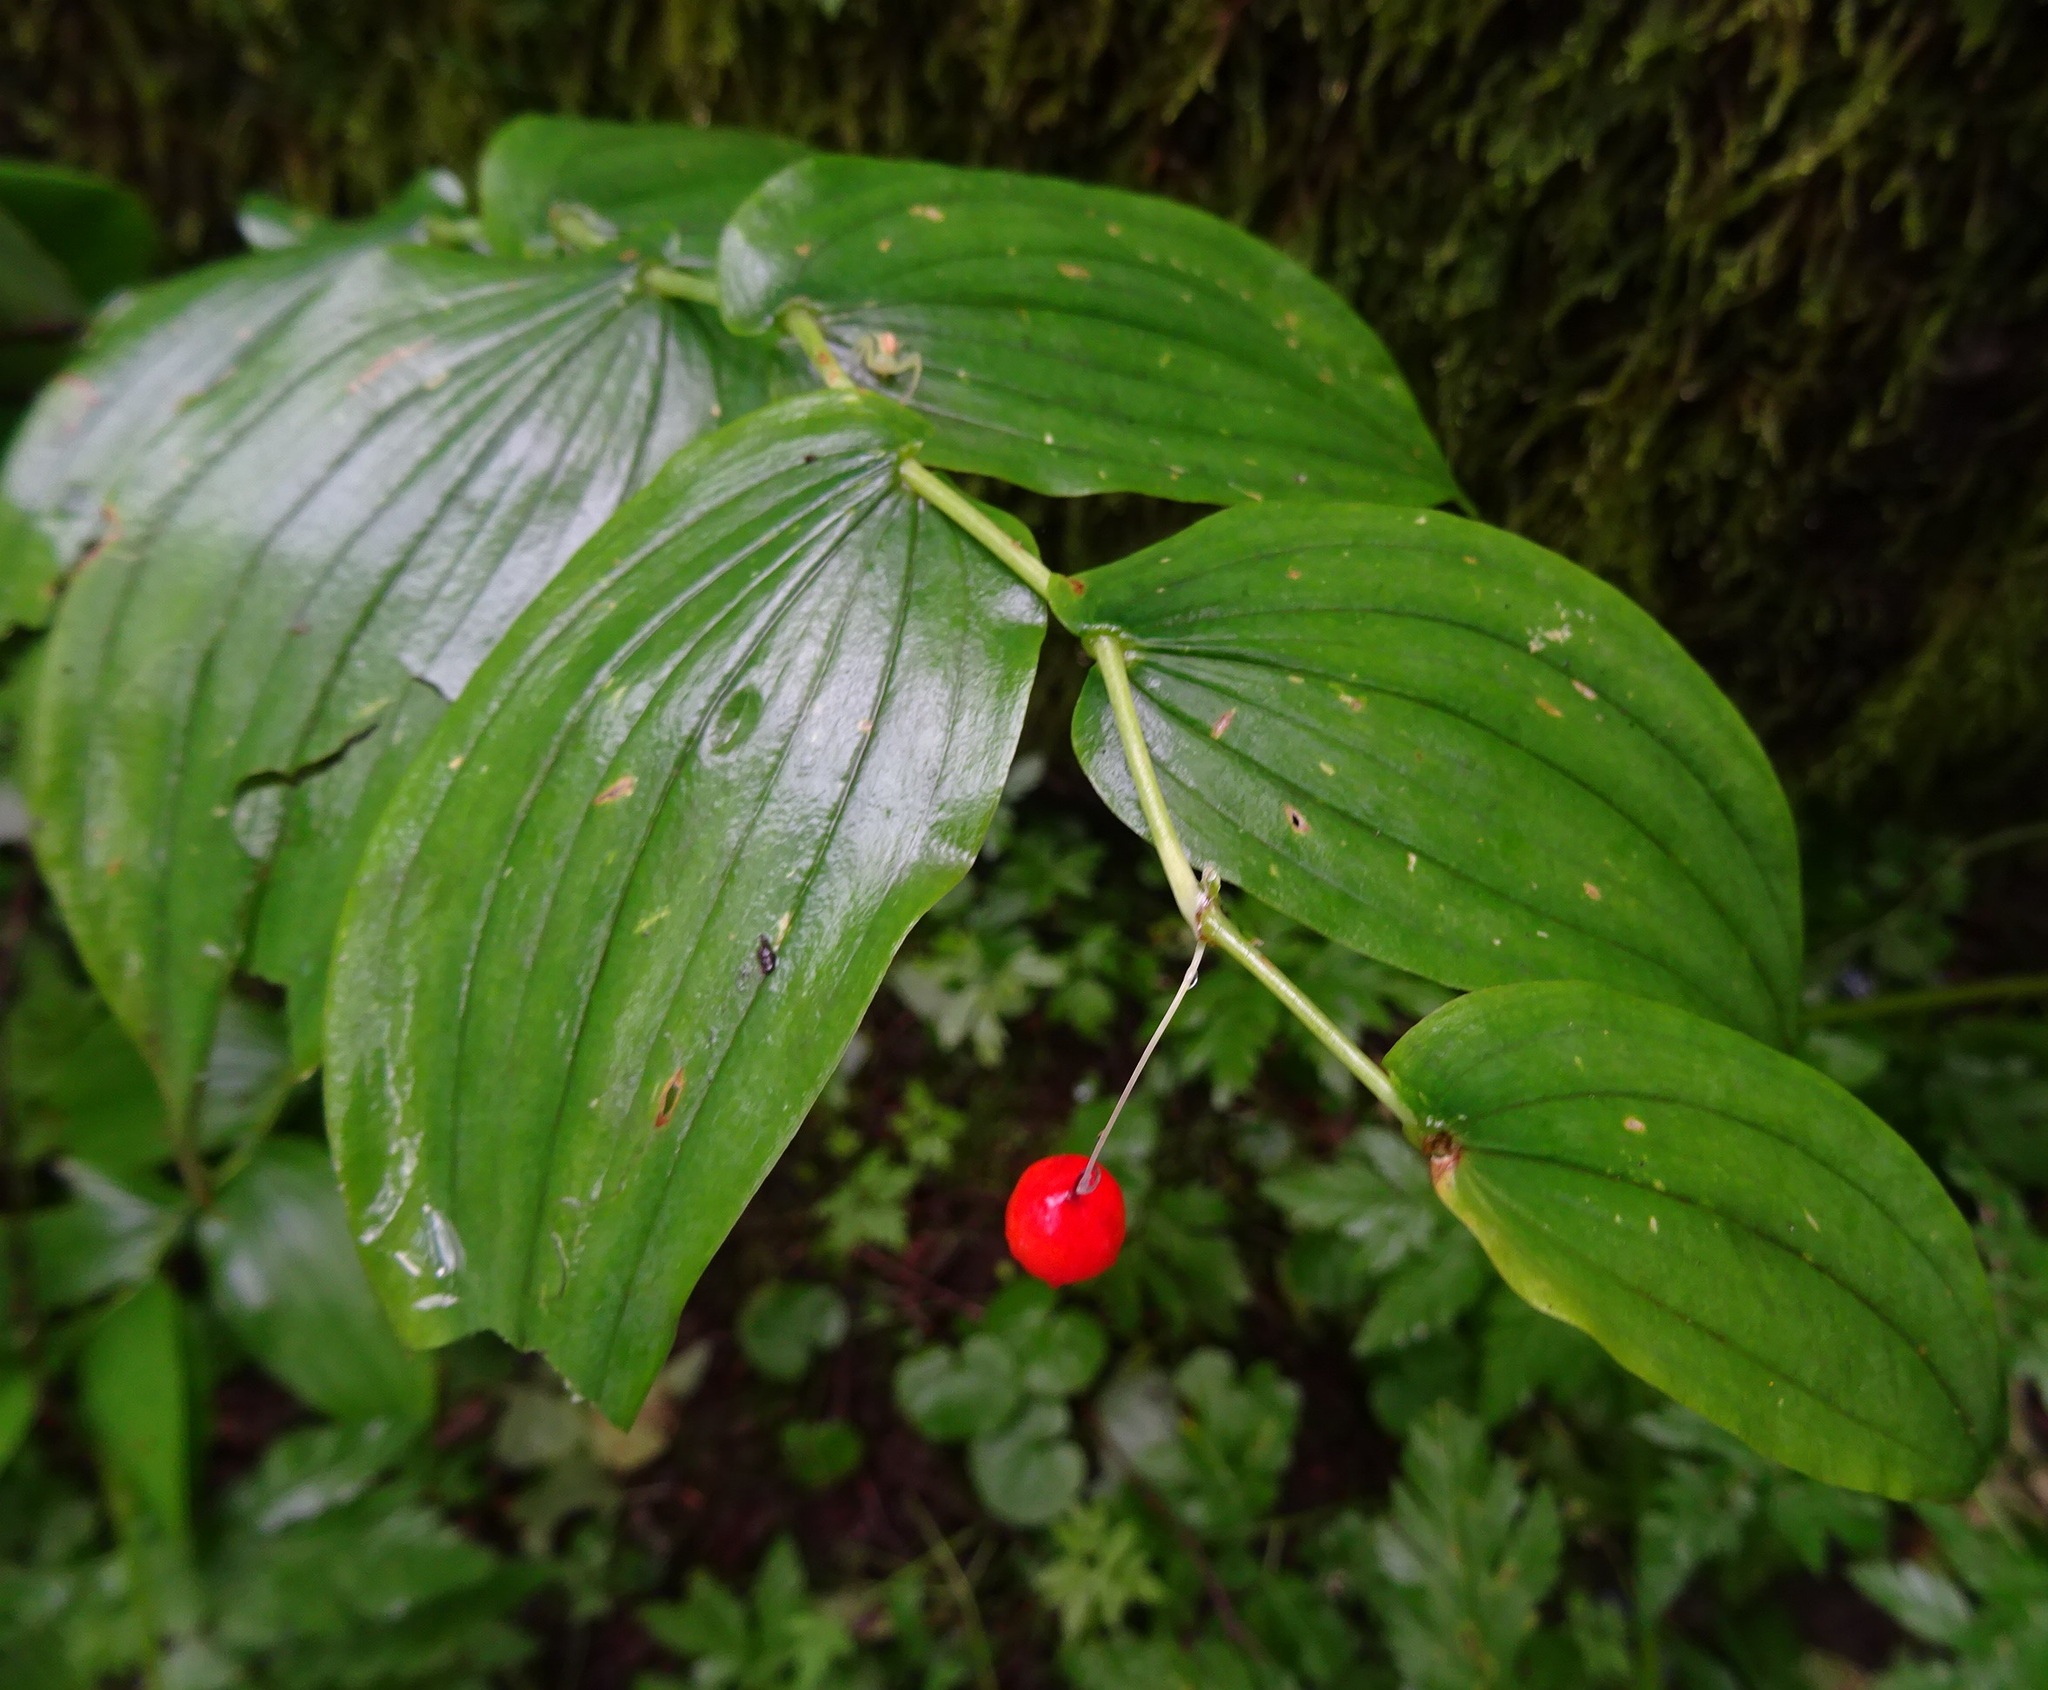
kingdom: Plantae
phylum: Tracheophyta
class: Liliopsida
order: Liliales
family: Liliaceae
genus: Streptopus
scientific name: Streptopus amplexifolius
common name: Clasp twisted stalk
